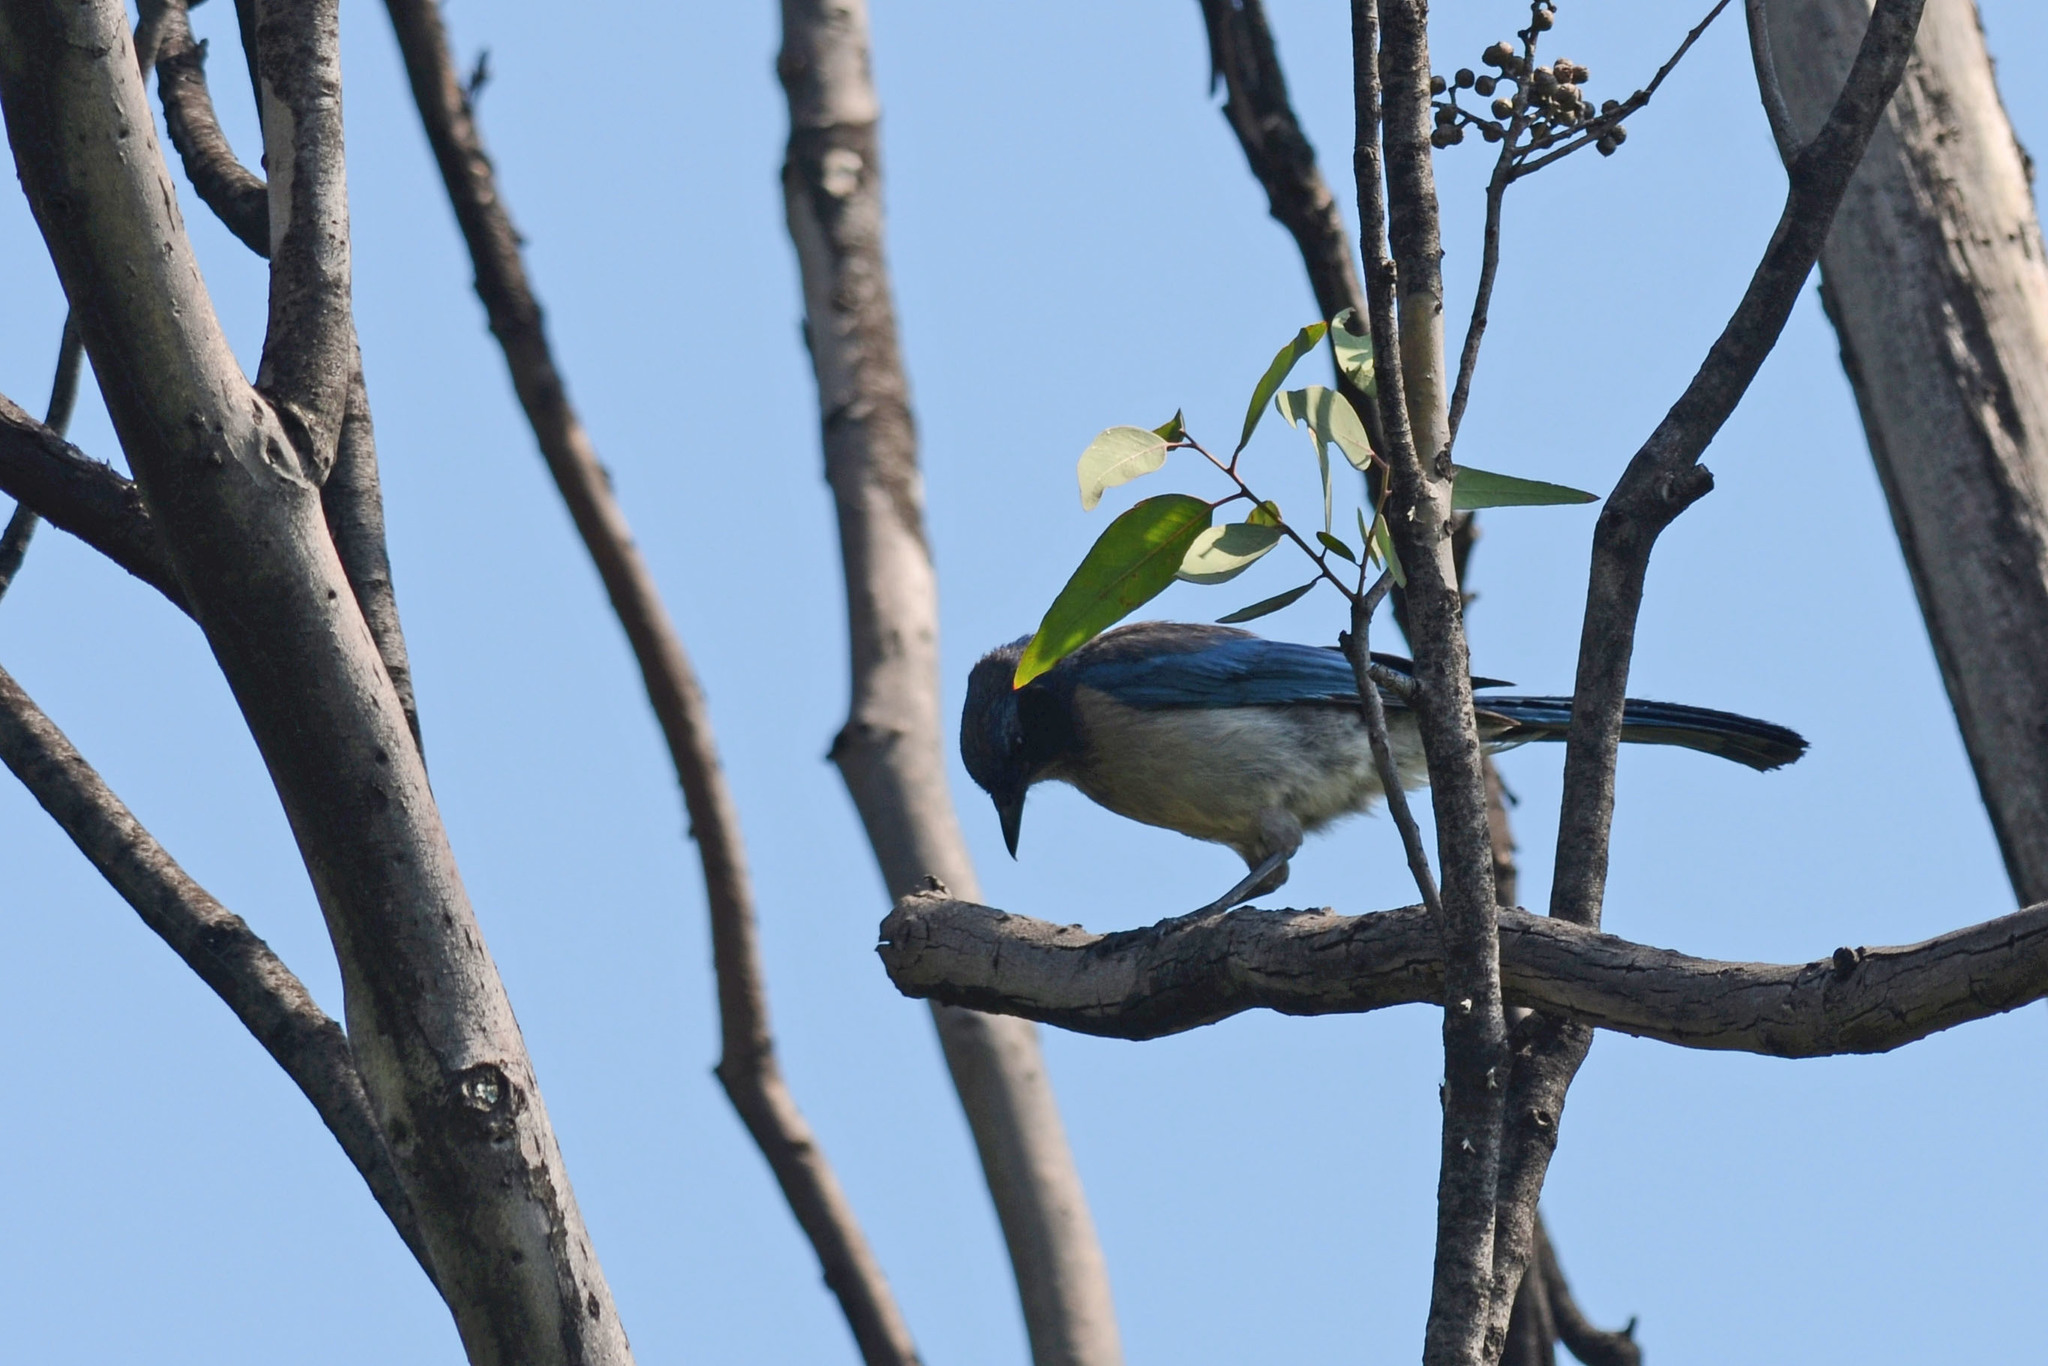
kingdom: Animalia
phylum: Chordata
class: Aves
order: Passeriformes
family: Corvidae
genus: Aphelocoma
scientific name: Aphelocoma woodhouseii
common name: Woodhouse's scrub-jay
